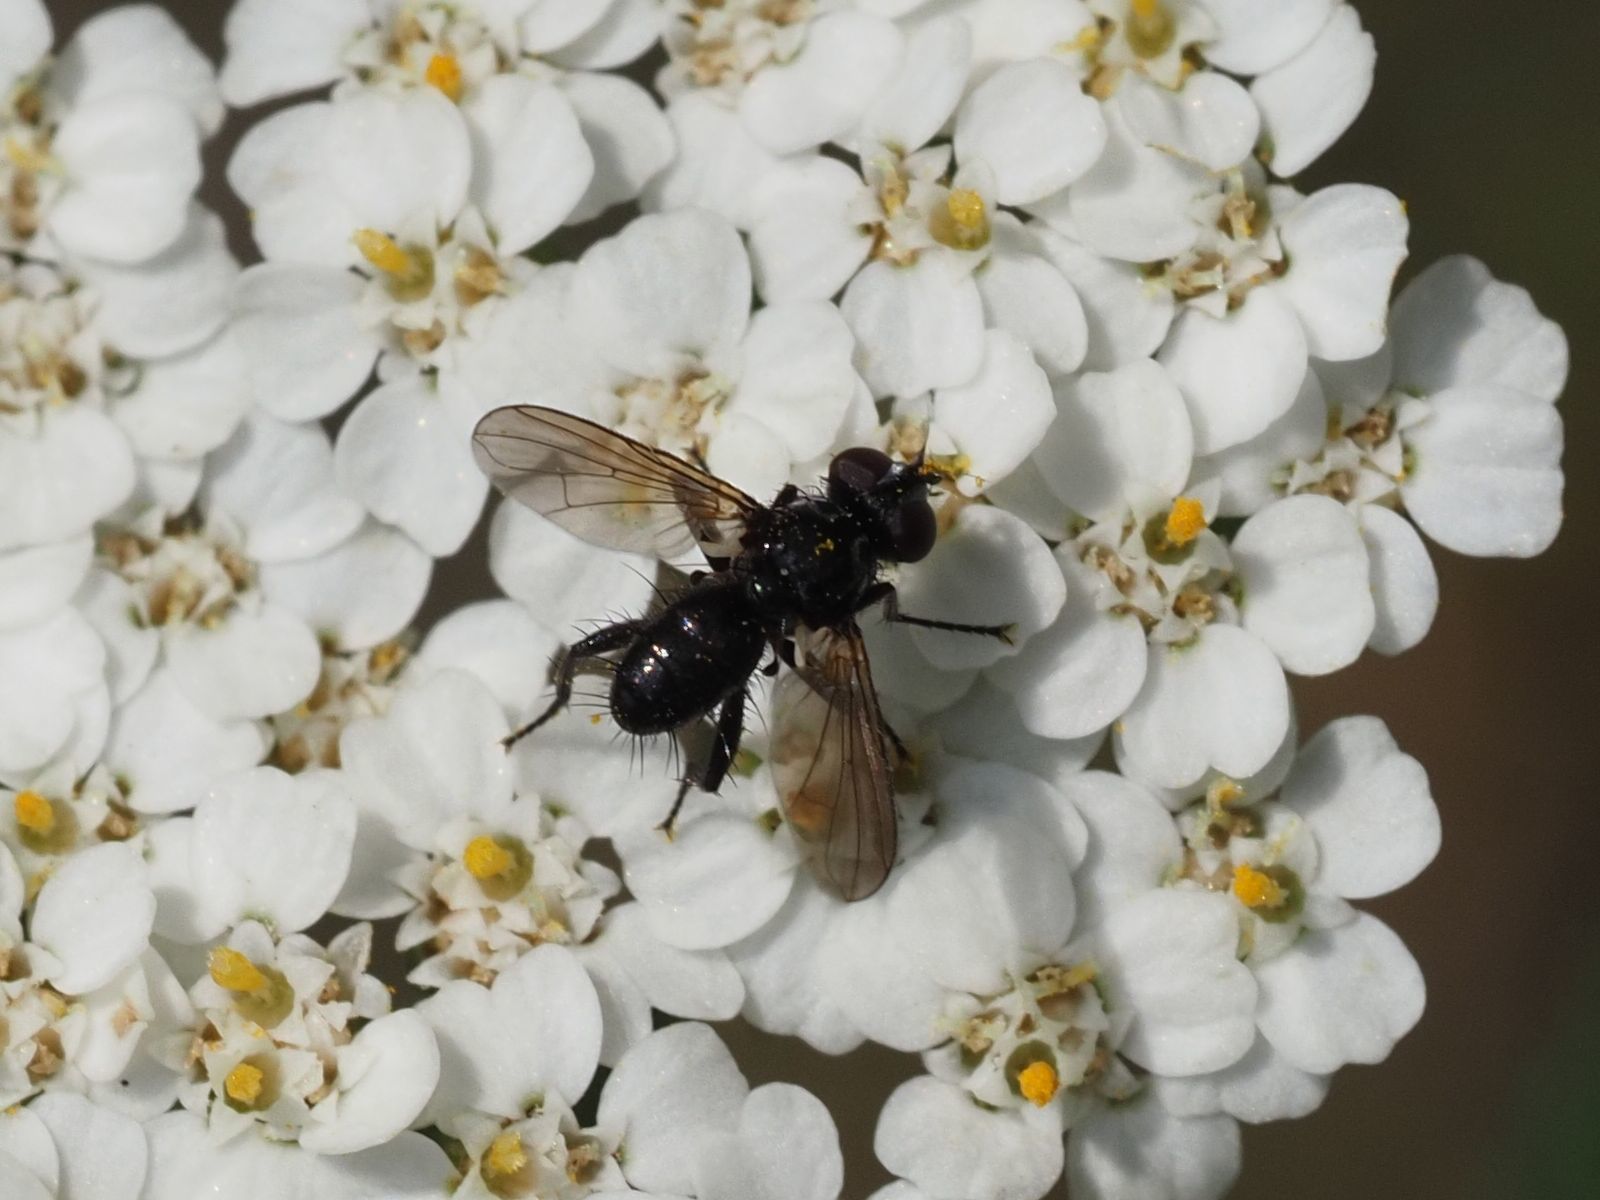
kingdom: Animalia
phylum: Arthropoda
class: Insecta
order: Diptera
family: Tachinidae
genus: Phania
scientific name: Phania funesta
